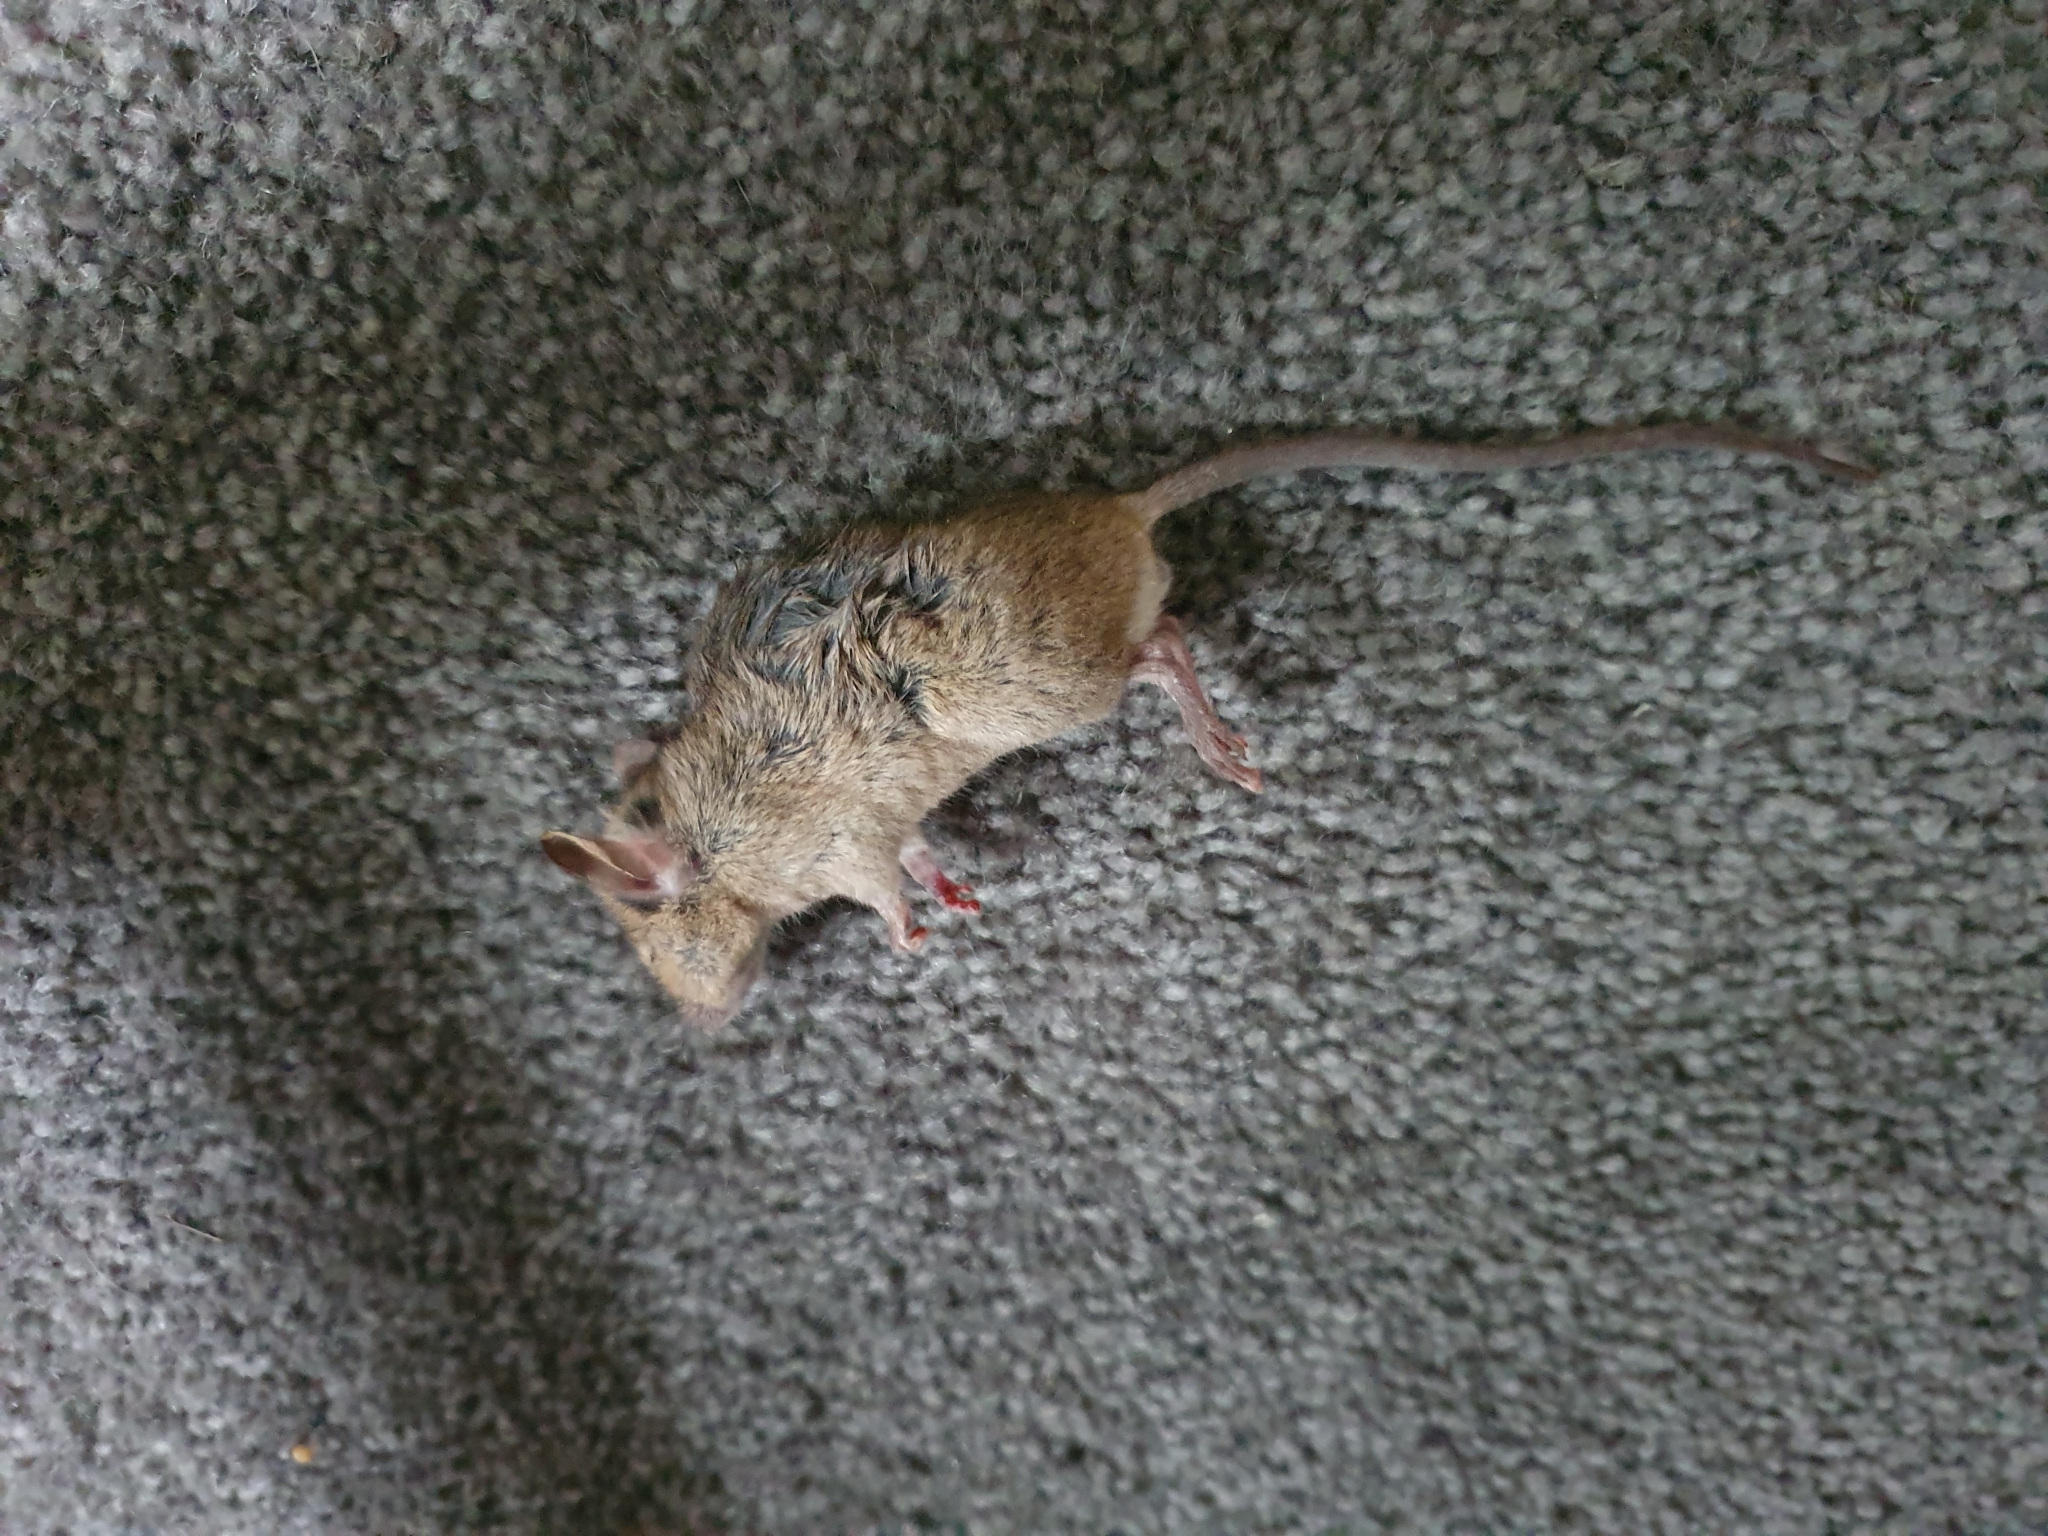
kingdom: Animalia
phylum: Chordata
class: Mammalia
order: Rodentia
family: Muridae
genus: Mus
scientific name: Mus musculus
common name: House mouse
